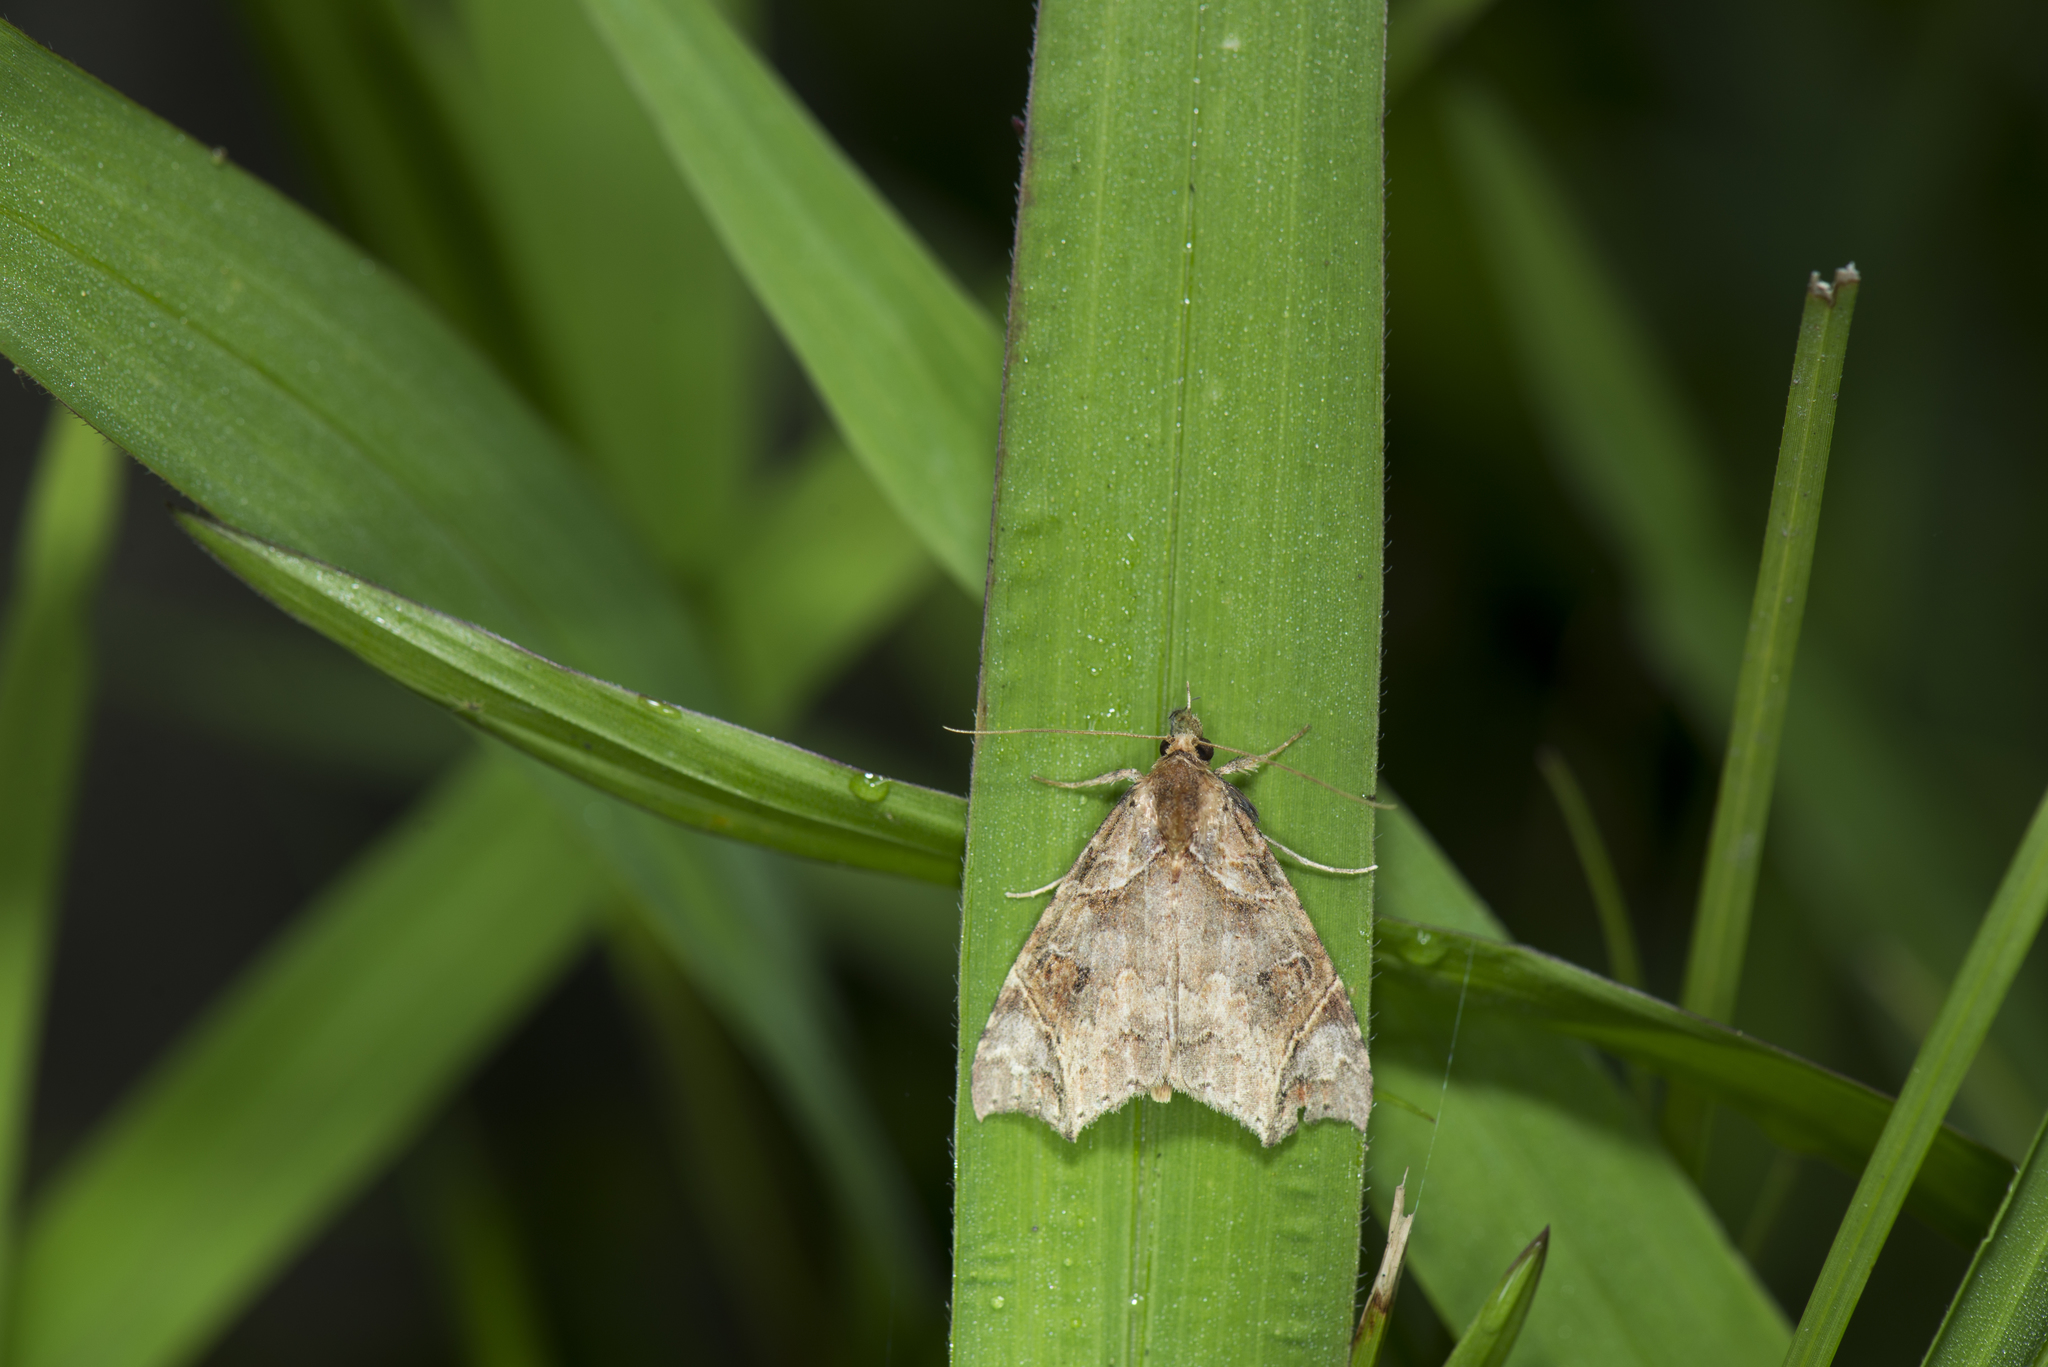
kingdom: Animalia
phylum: Arthropoda
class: Insecta
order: Lepidoptera
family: Erebidae
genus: Parolulis
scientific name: Parolulis renalis
